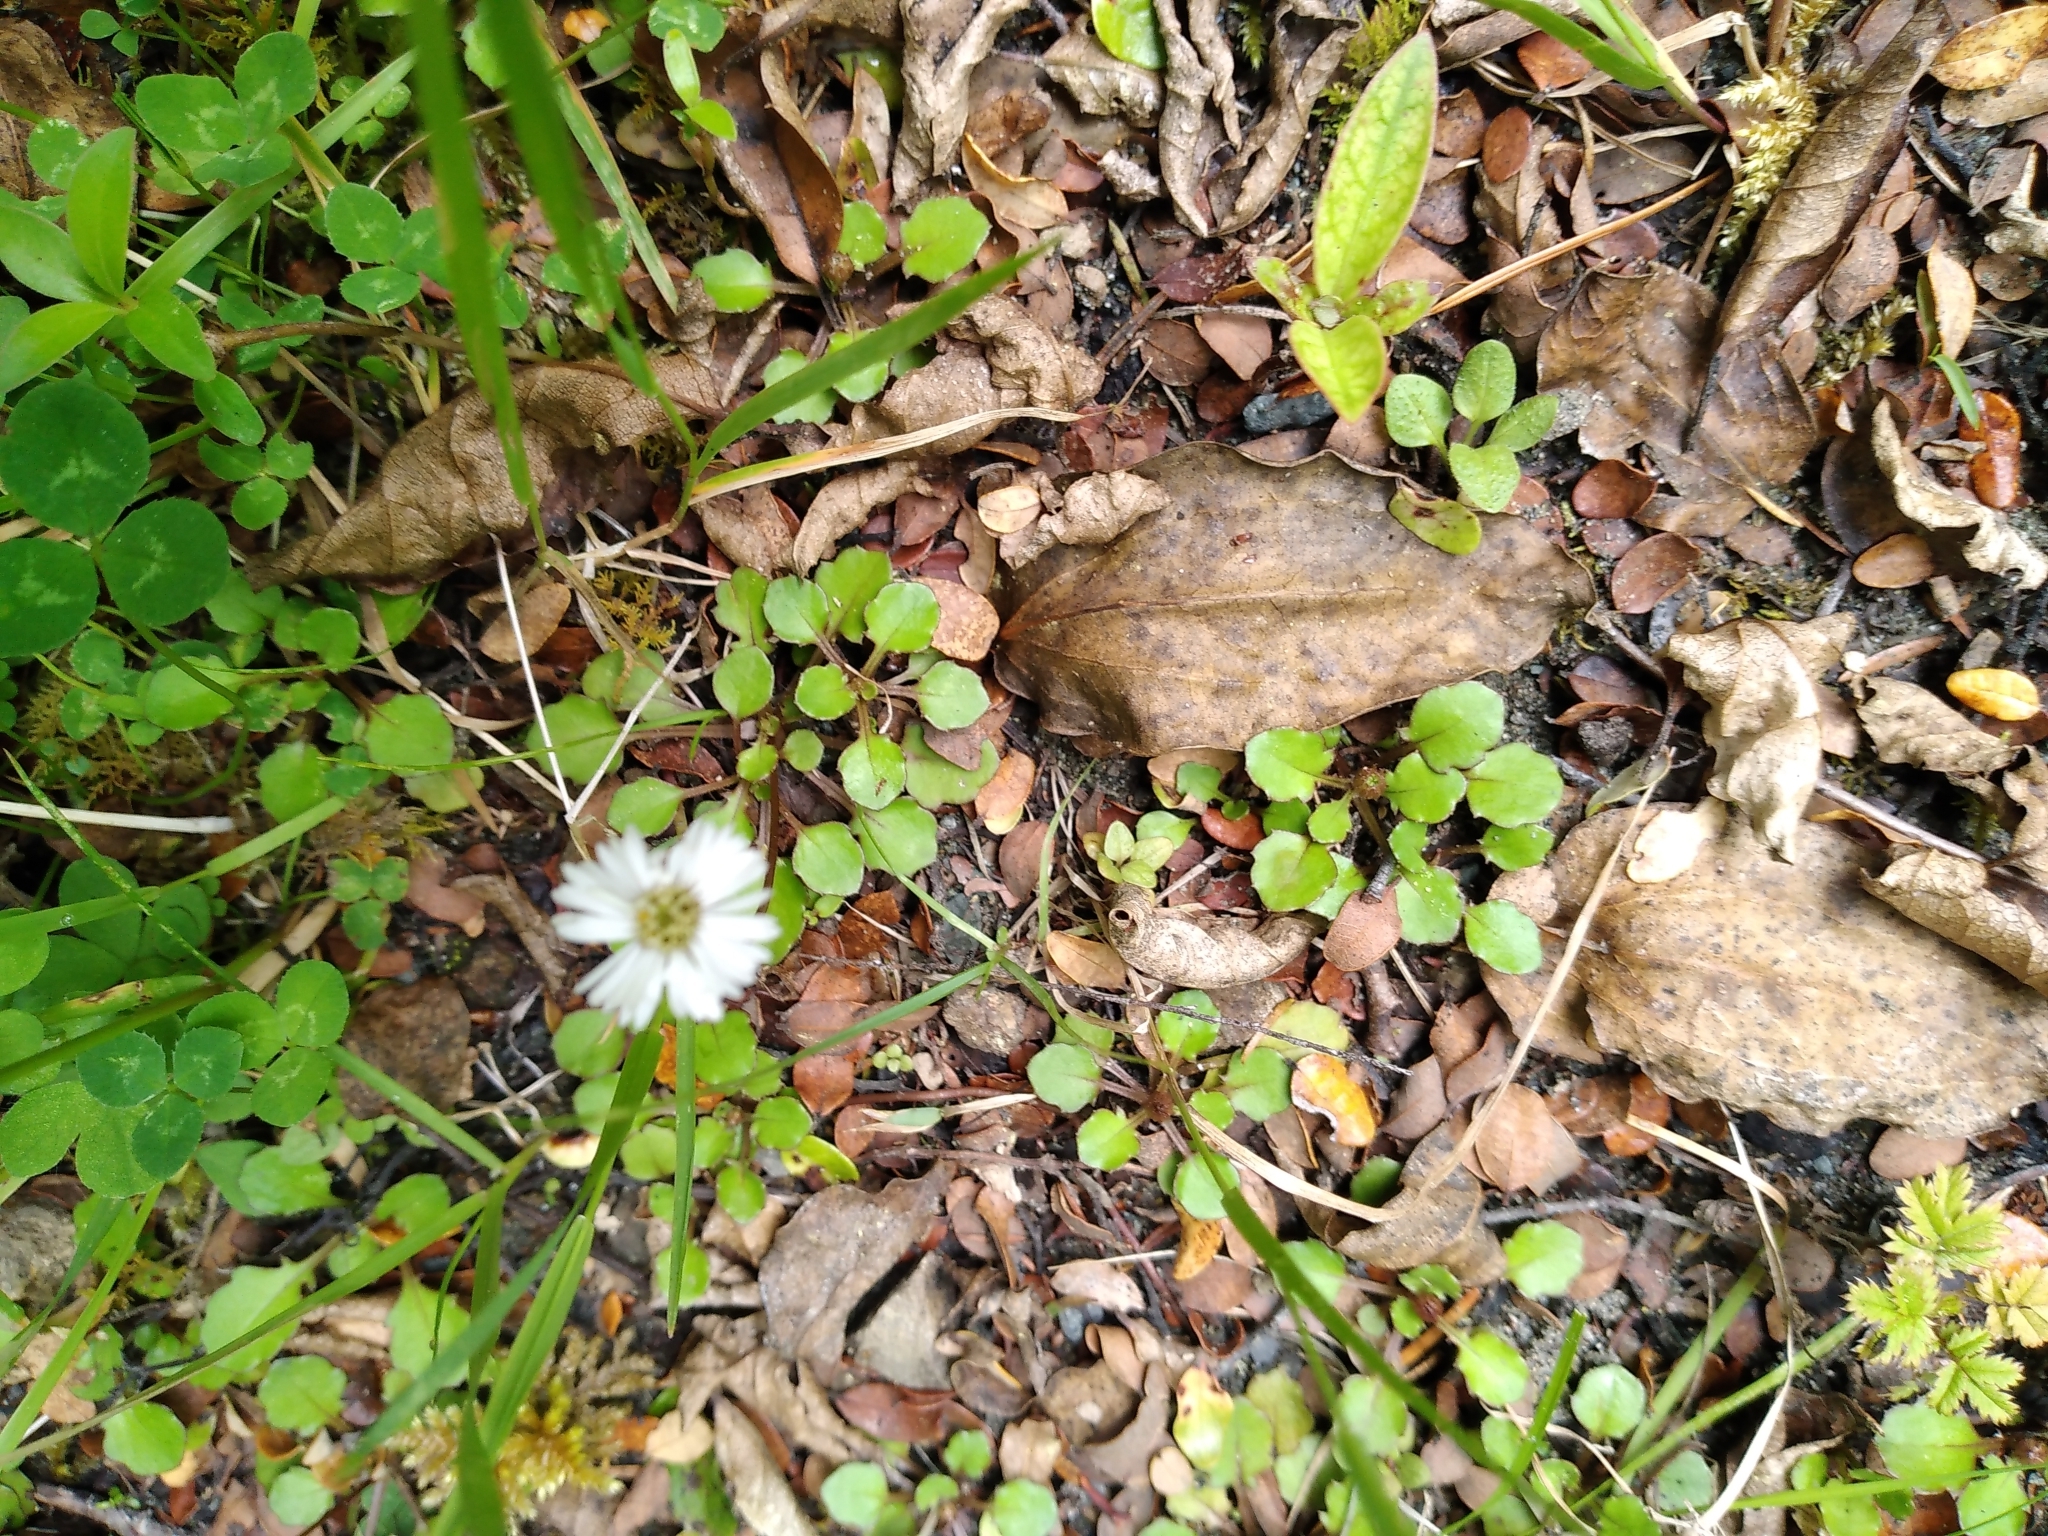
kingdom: Plantae
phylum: Tracheophyta
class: Magnoliopsida
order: Asterales
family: Asteraceae
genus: Lagenophora
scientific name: Lagenophora pumila
